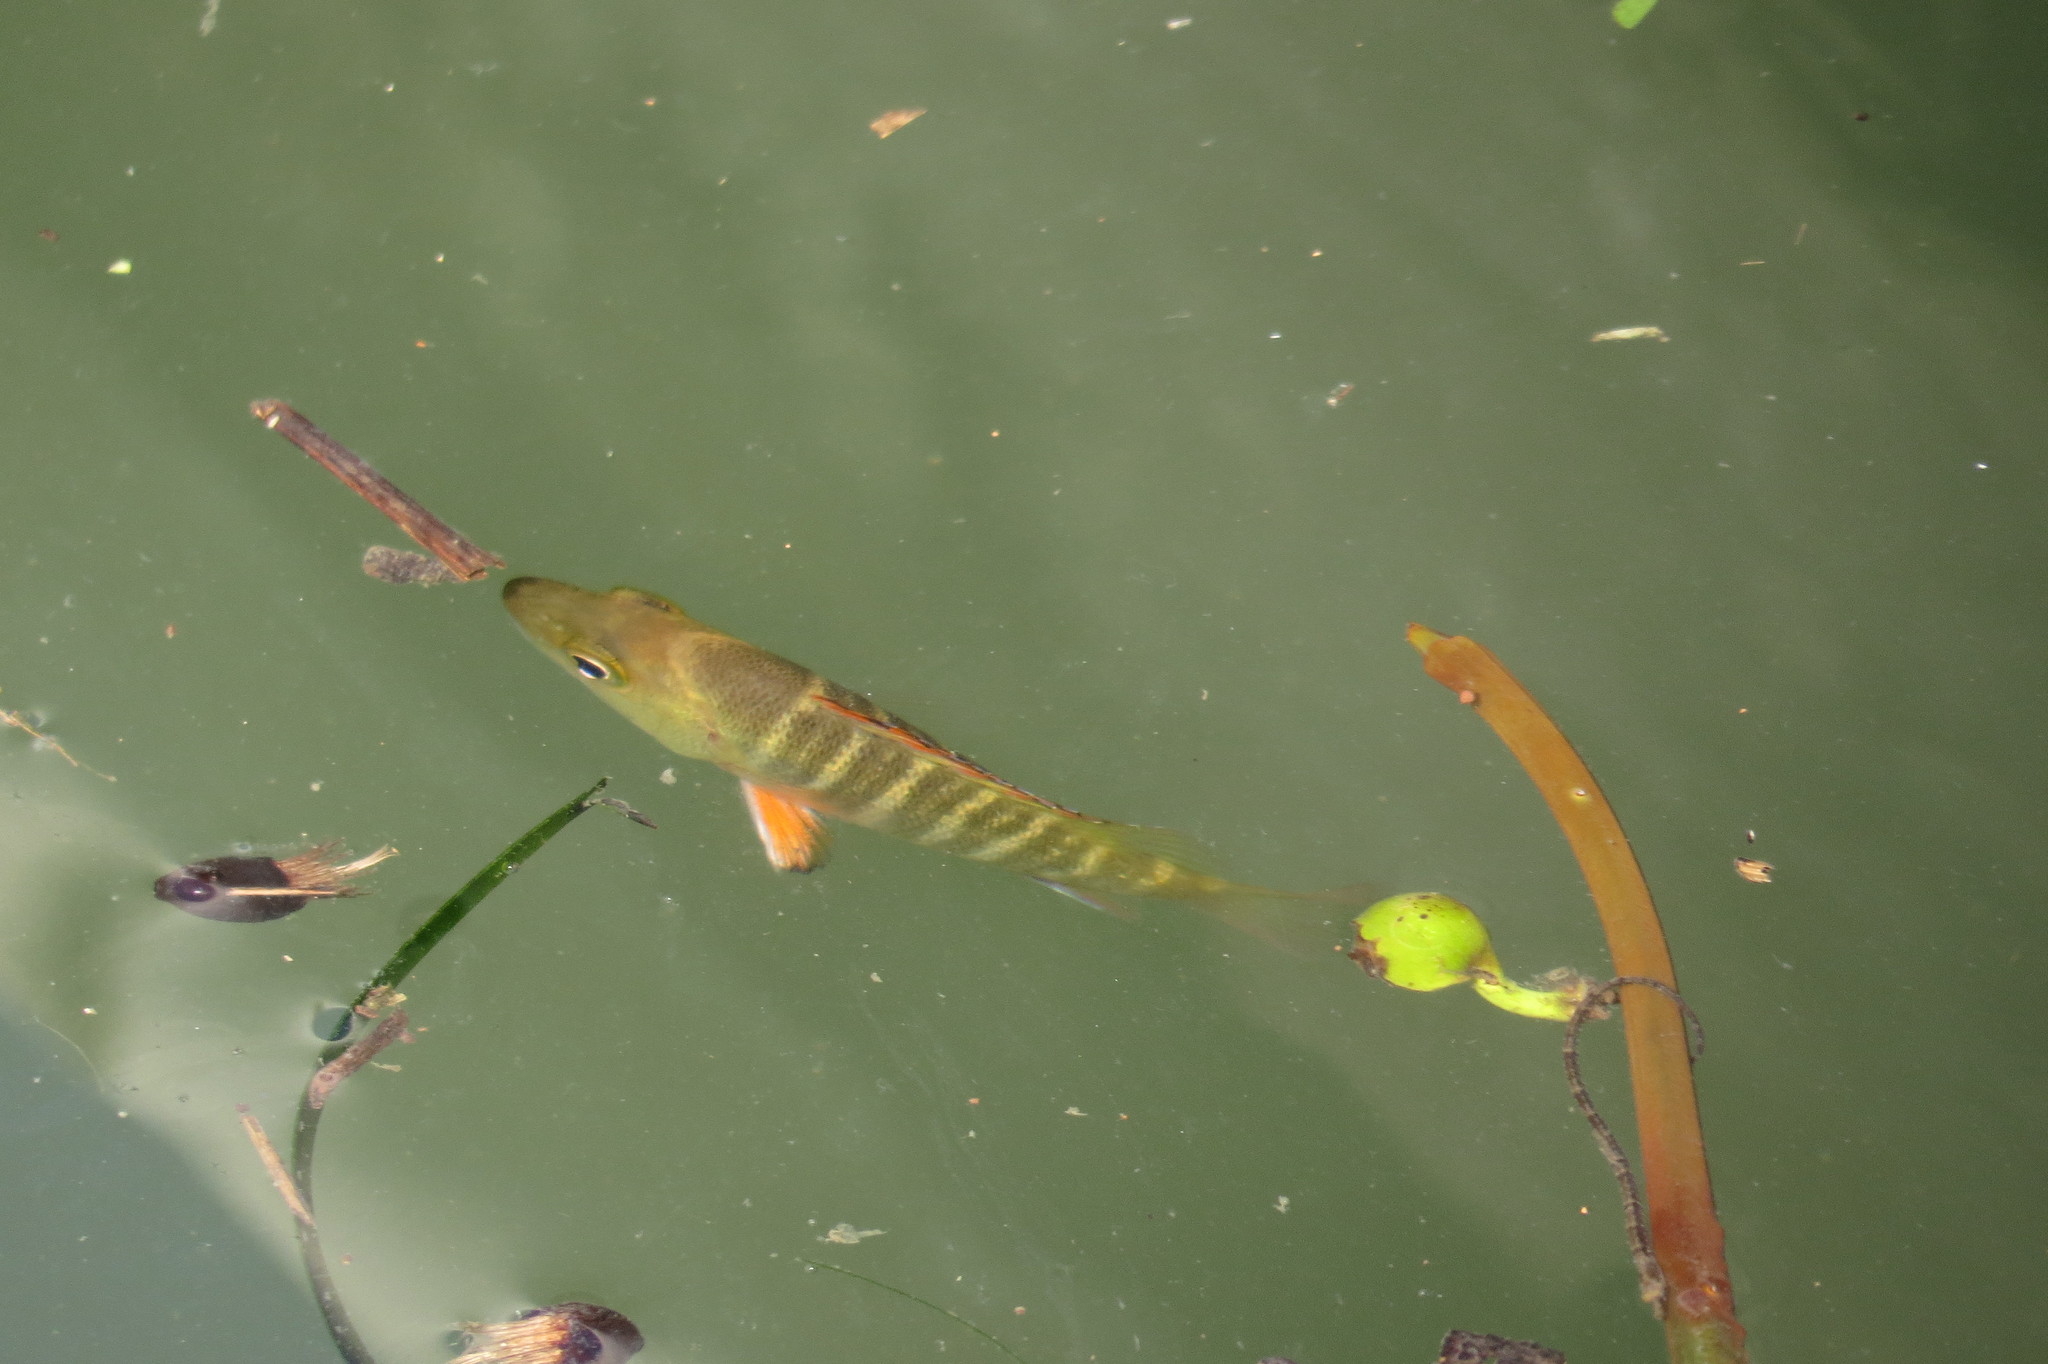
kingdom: Animalia
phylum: Chordata
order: Perciformes
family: Lutjanidae
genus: Lutjanus
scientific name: Lutjanus argentimaculatus
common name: Mangrove red snapper
